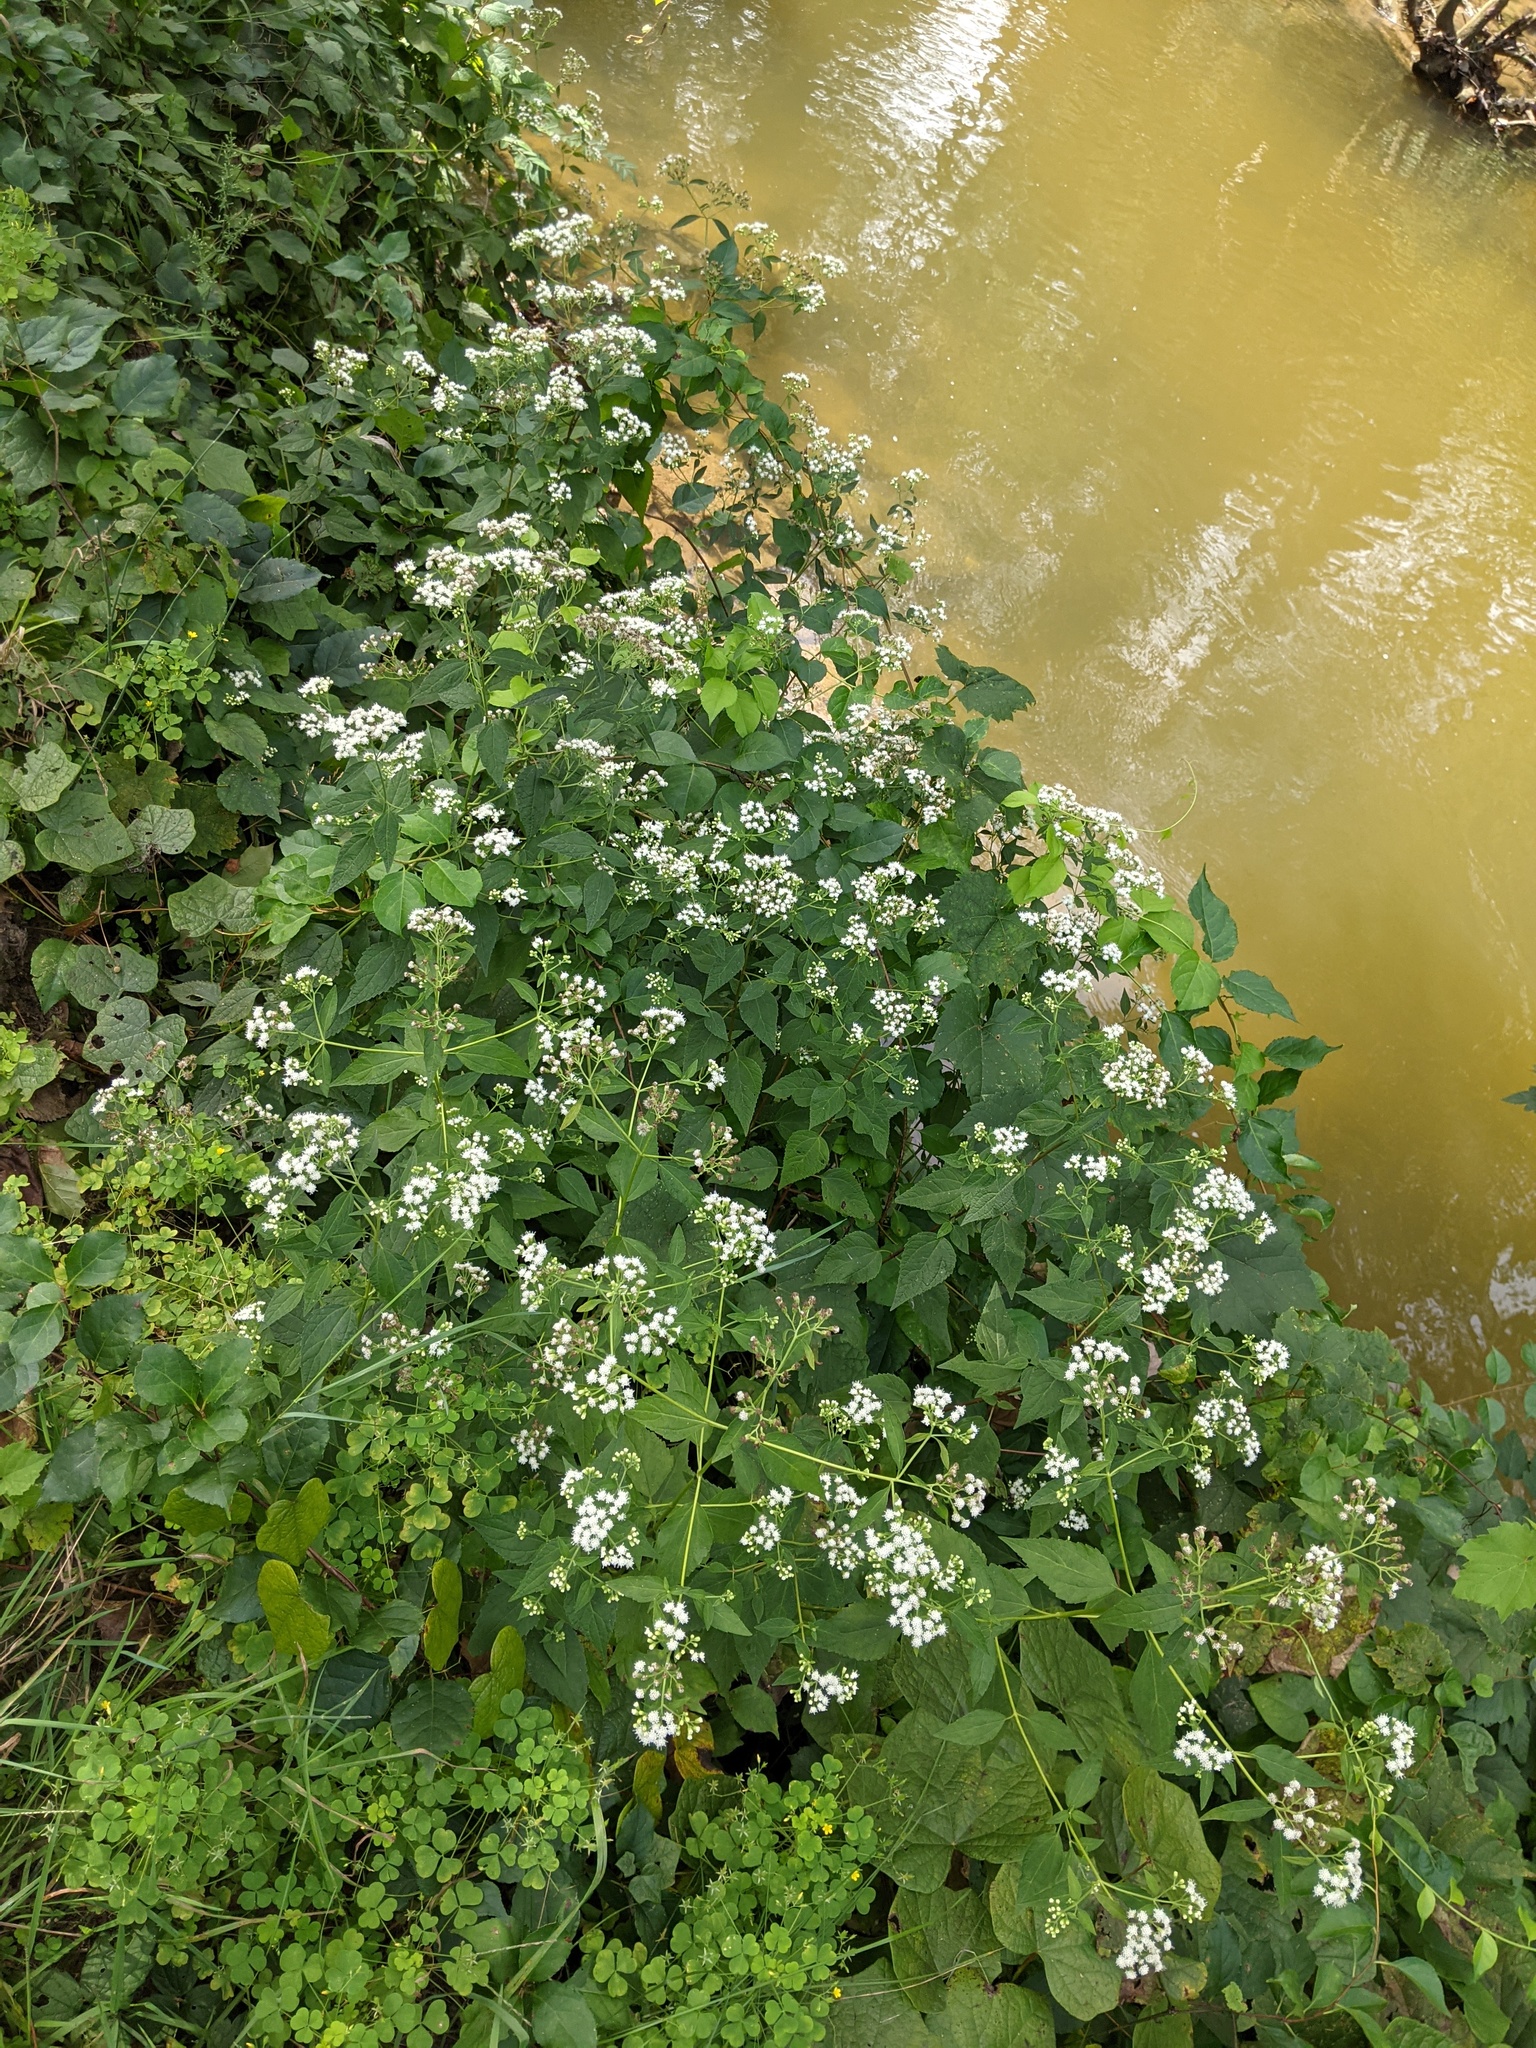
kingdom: Plantae
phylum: Tracheophyta
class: Magnoliopsida
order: Asterales
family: Asteraceae
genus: Ageratina
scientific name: Ageratina altissima
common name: White snakeroot
